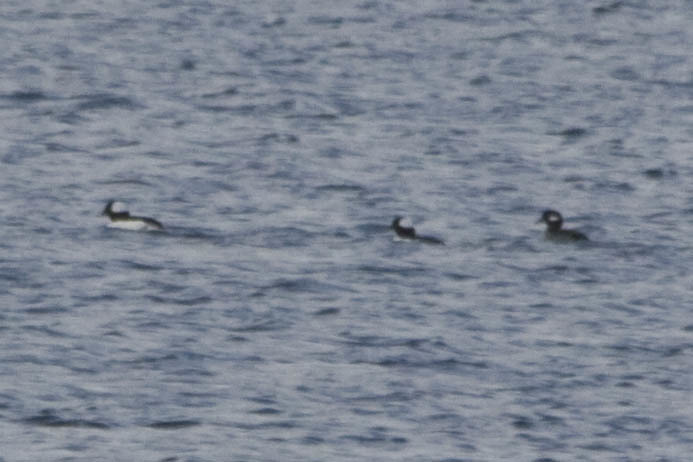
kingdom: Animalia
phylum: Chordata
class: Aves
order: Anseriformes
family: Anatidae
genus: Bucephala
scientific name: Bucephala albeola
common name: Bufflehead
